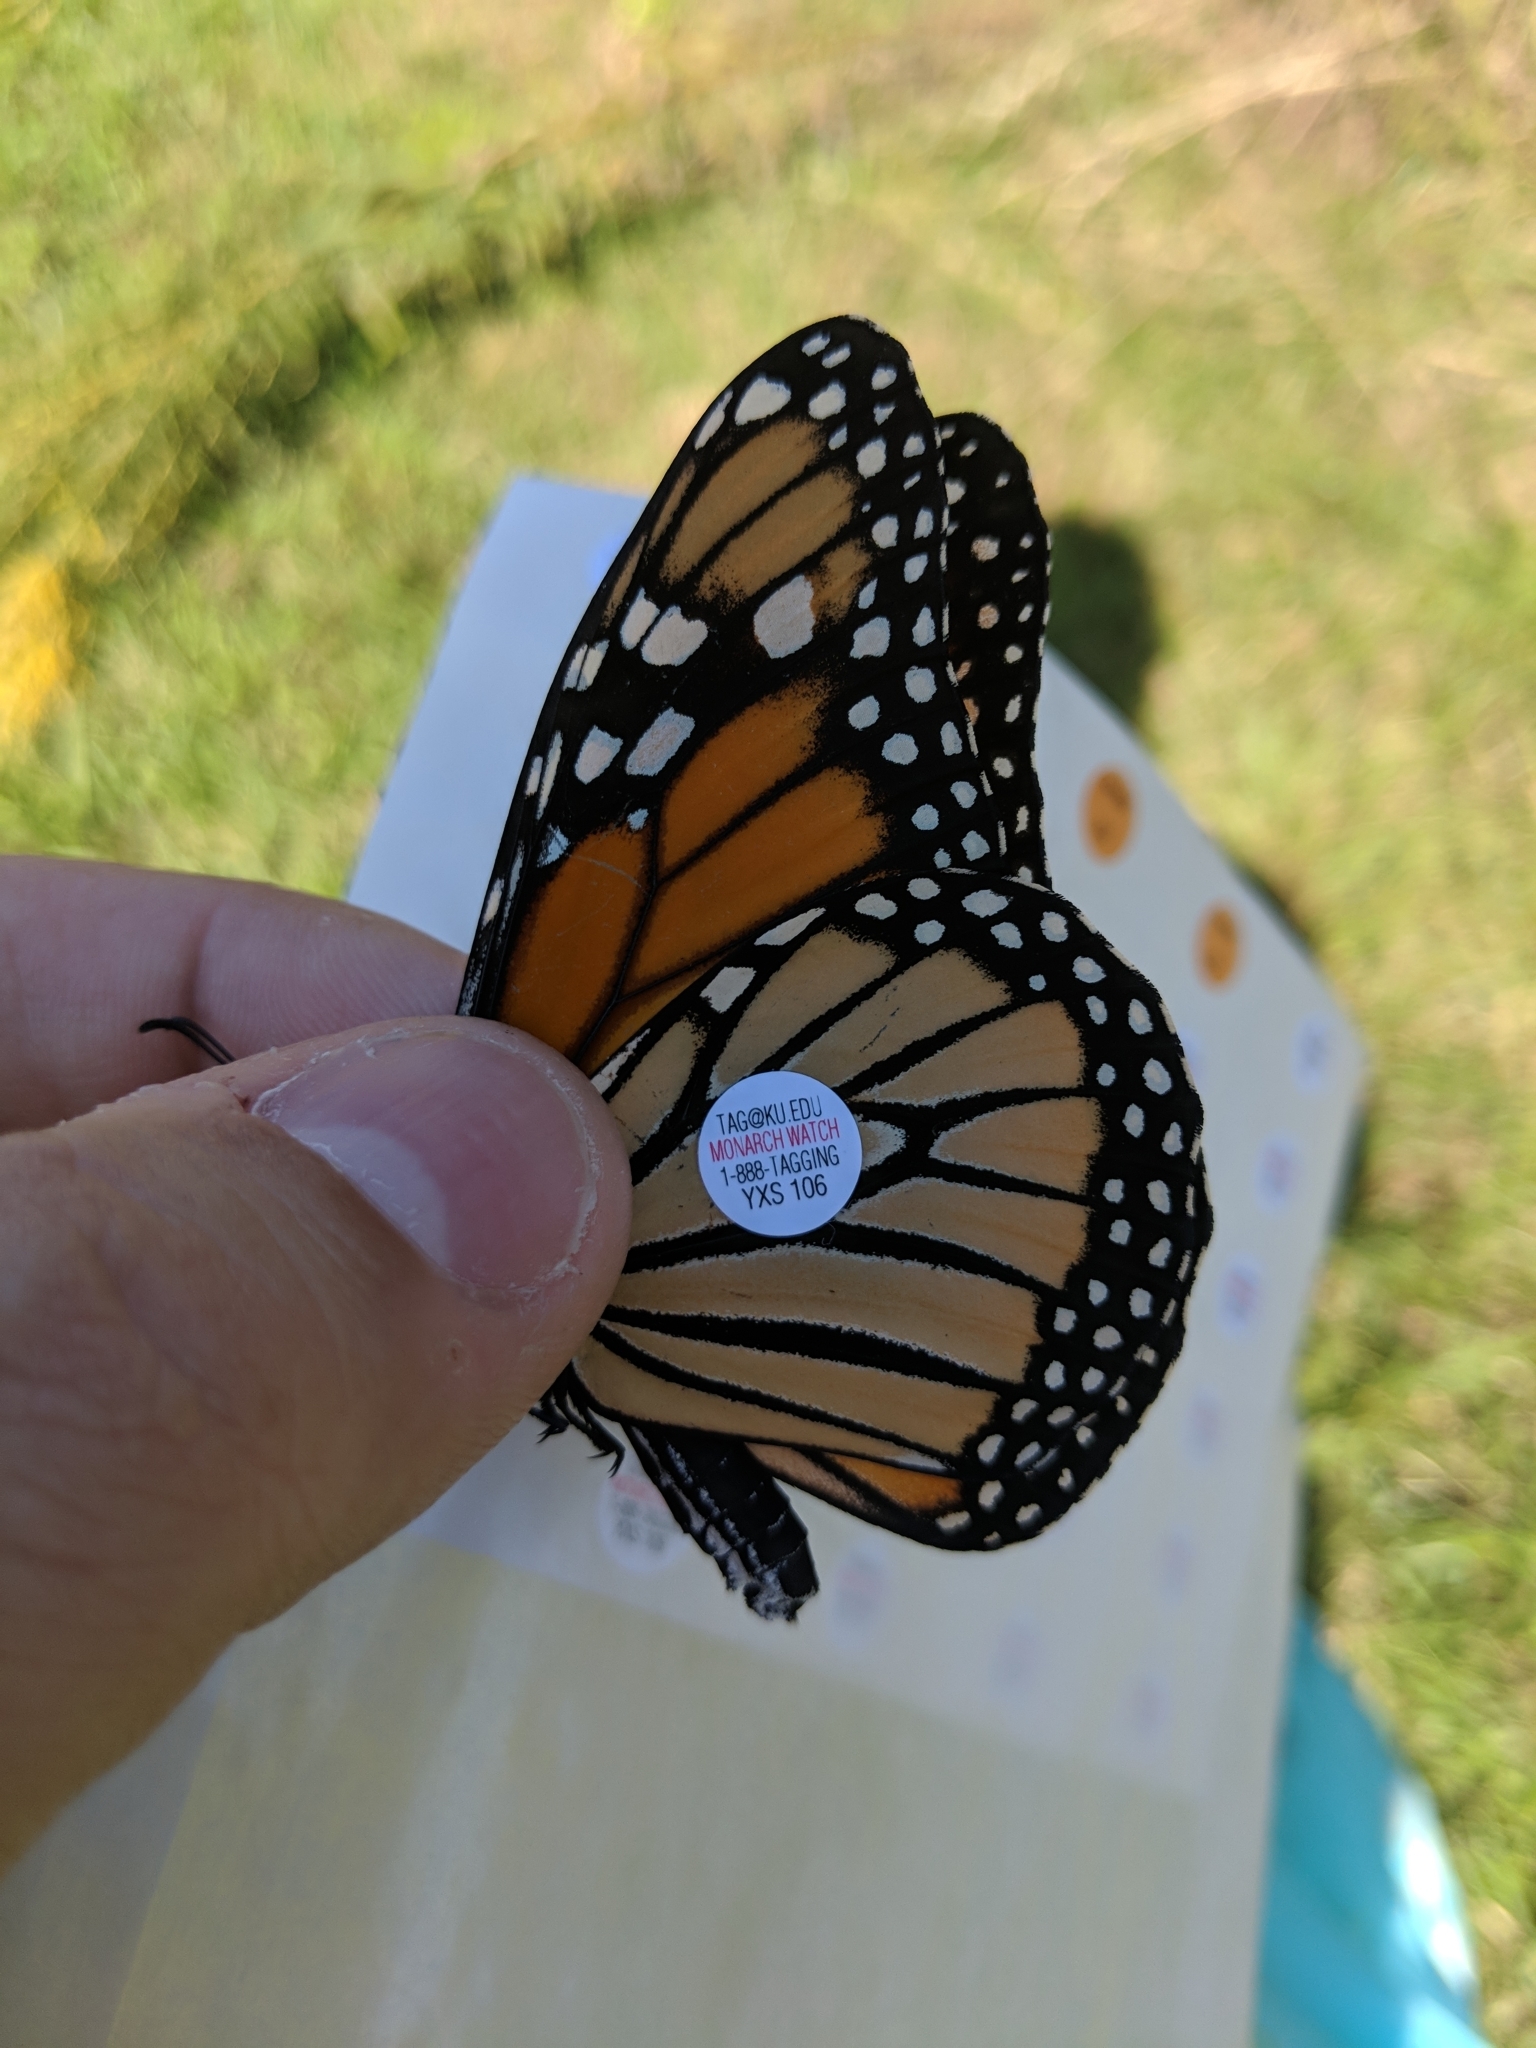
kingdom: Animalia
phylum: Arthropoda
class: Insecta
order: Lepidoptera
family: Nymphalidae
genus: Danaus
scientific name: Danaus plexippus
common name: Monarch
